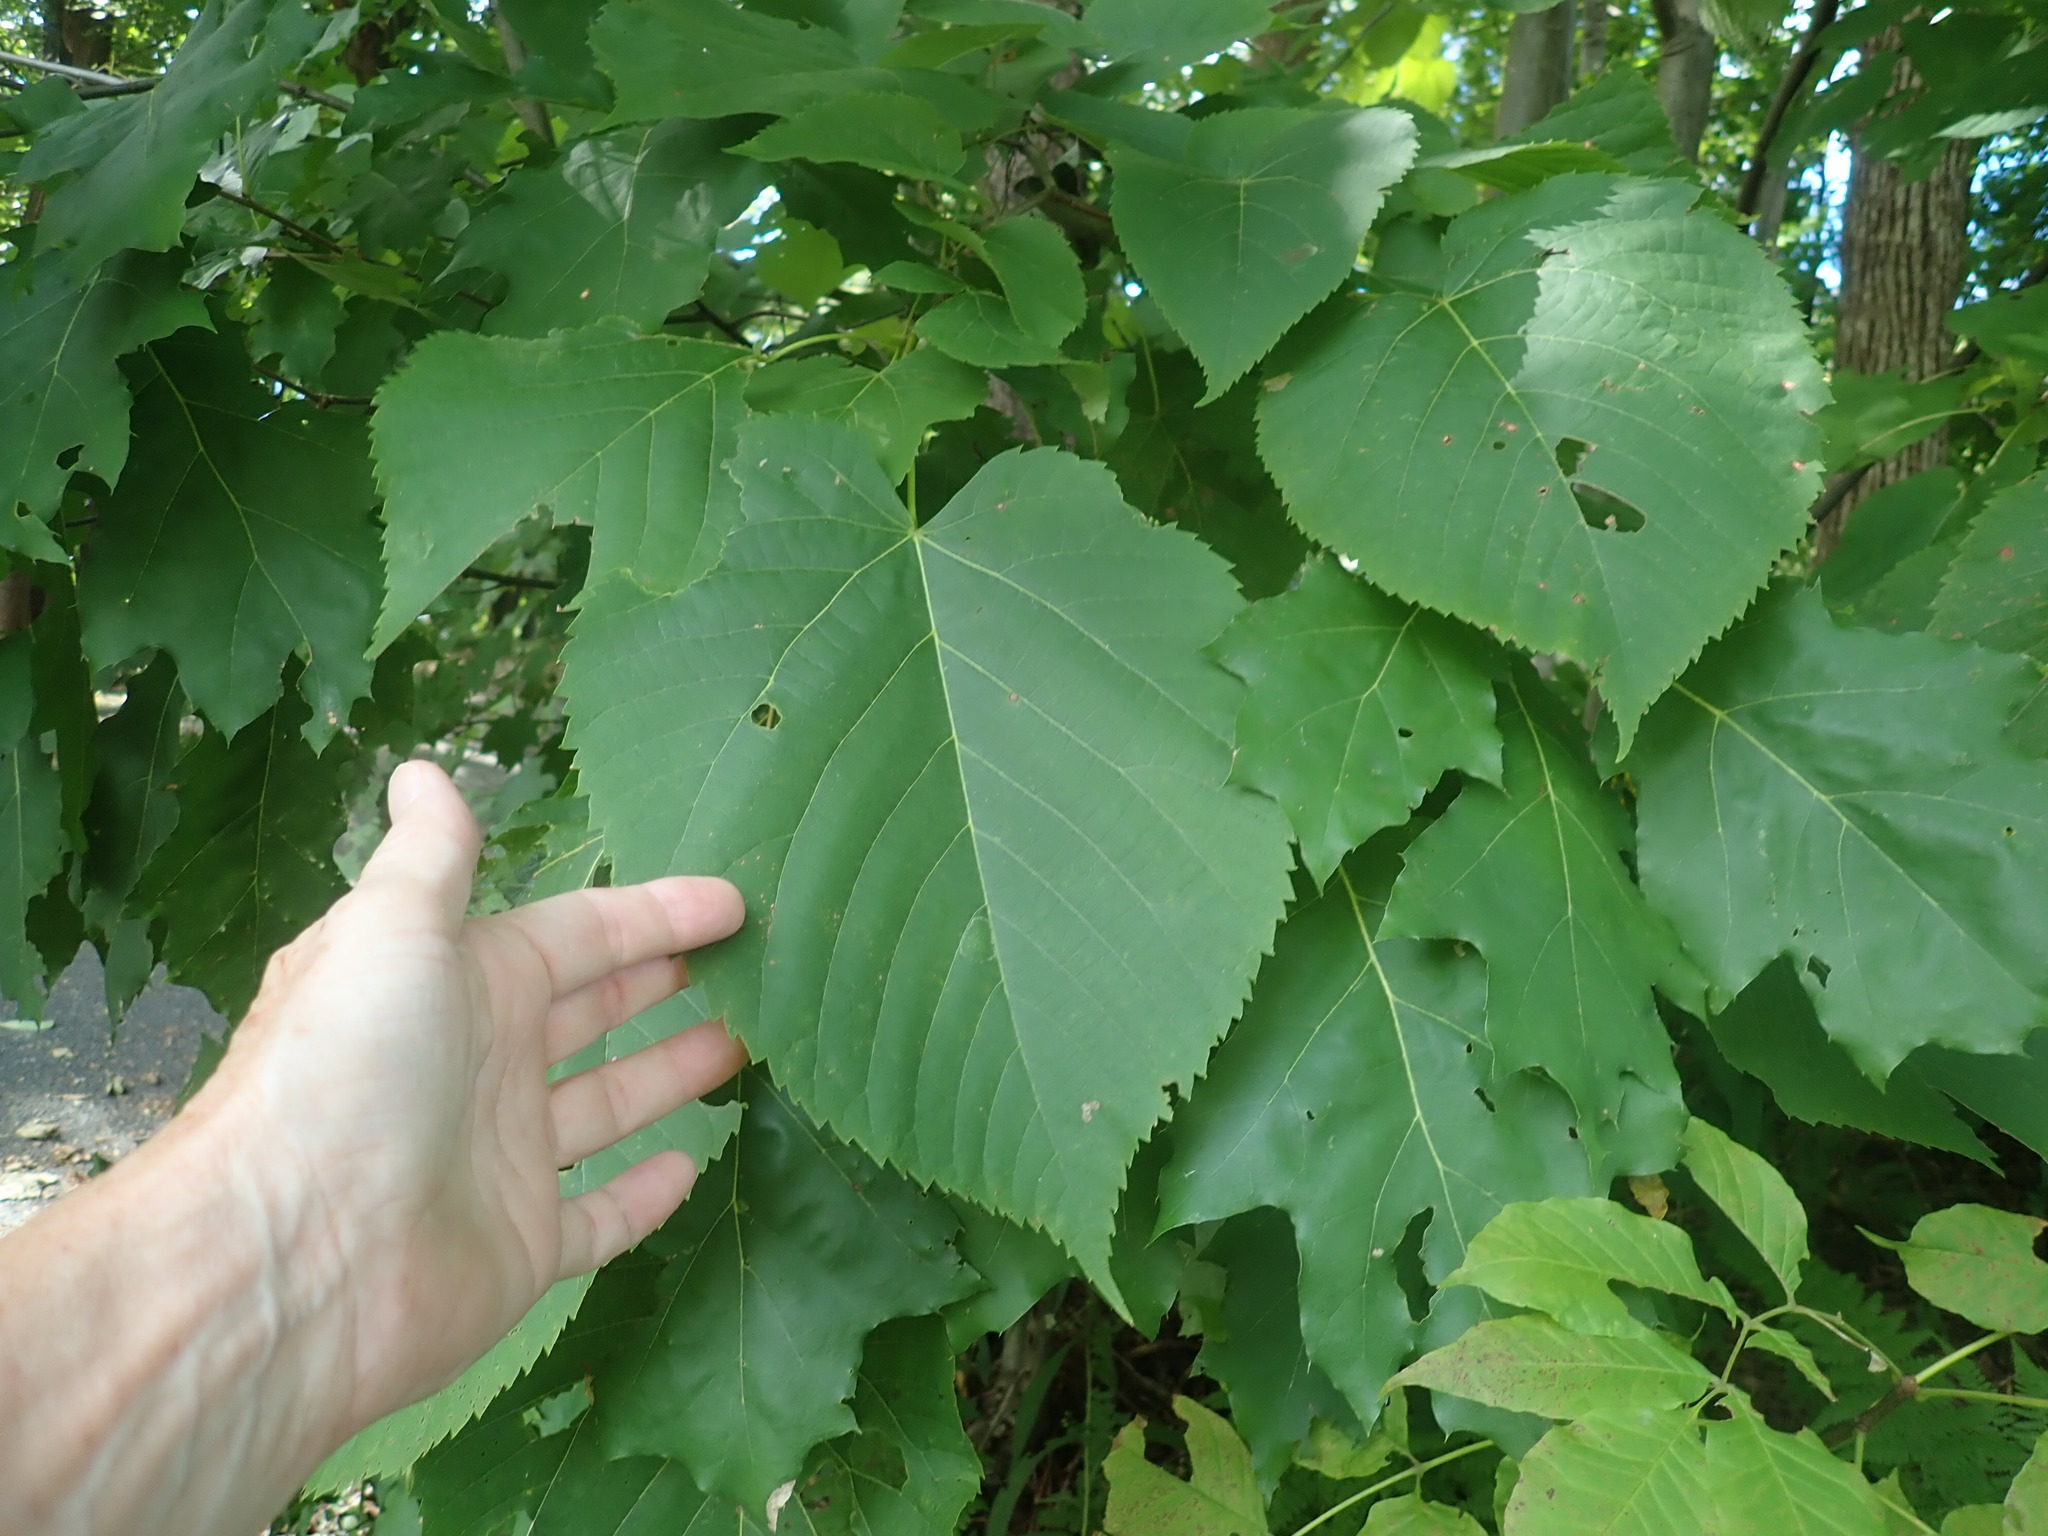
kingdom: Plantae
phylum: Tracheophyta
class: Magnoliopsida
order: Malvales
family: Malvaceae
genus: Tilia
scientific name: Tilia americana
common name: Basswood
